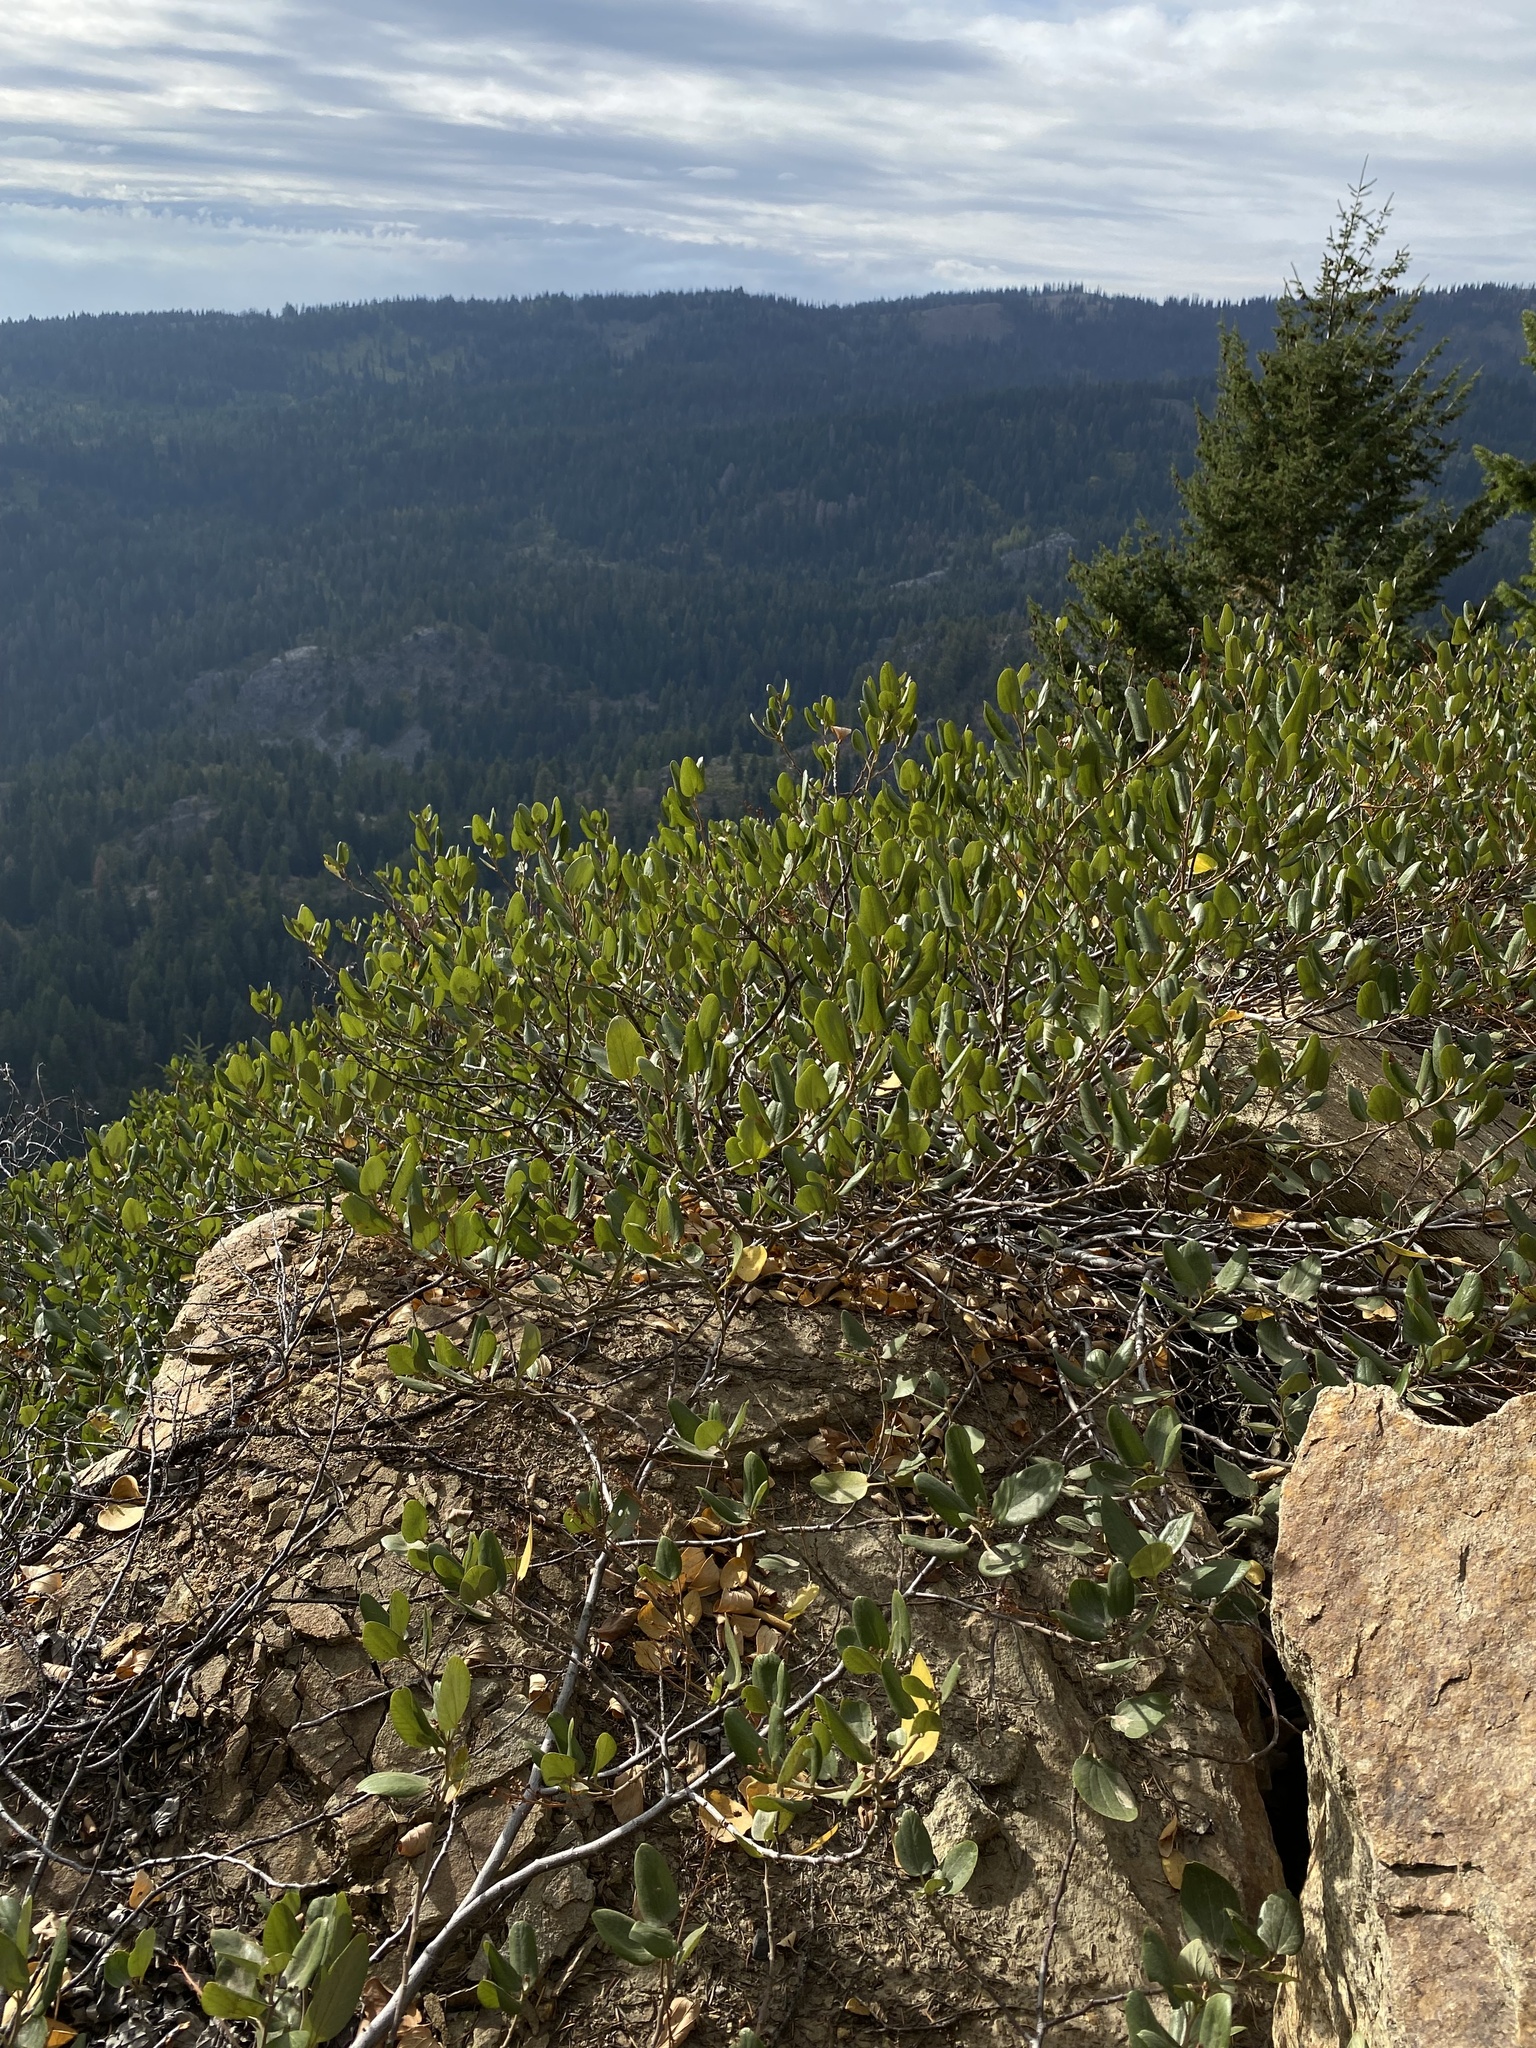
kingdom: Plantae
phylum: Tracheophyta
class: Magnoliopsida
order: Rosales
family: Rhamnaceae
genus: Ceanothus
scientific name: Ceanothus velutinus
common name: Snowbrush
